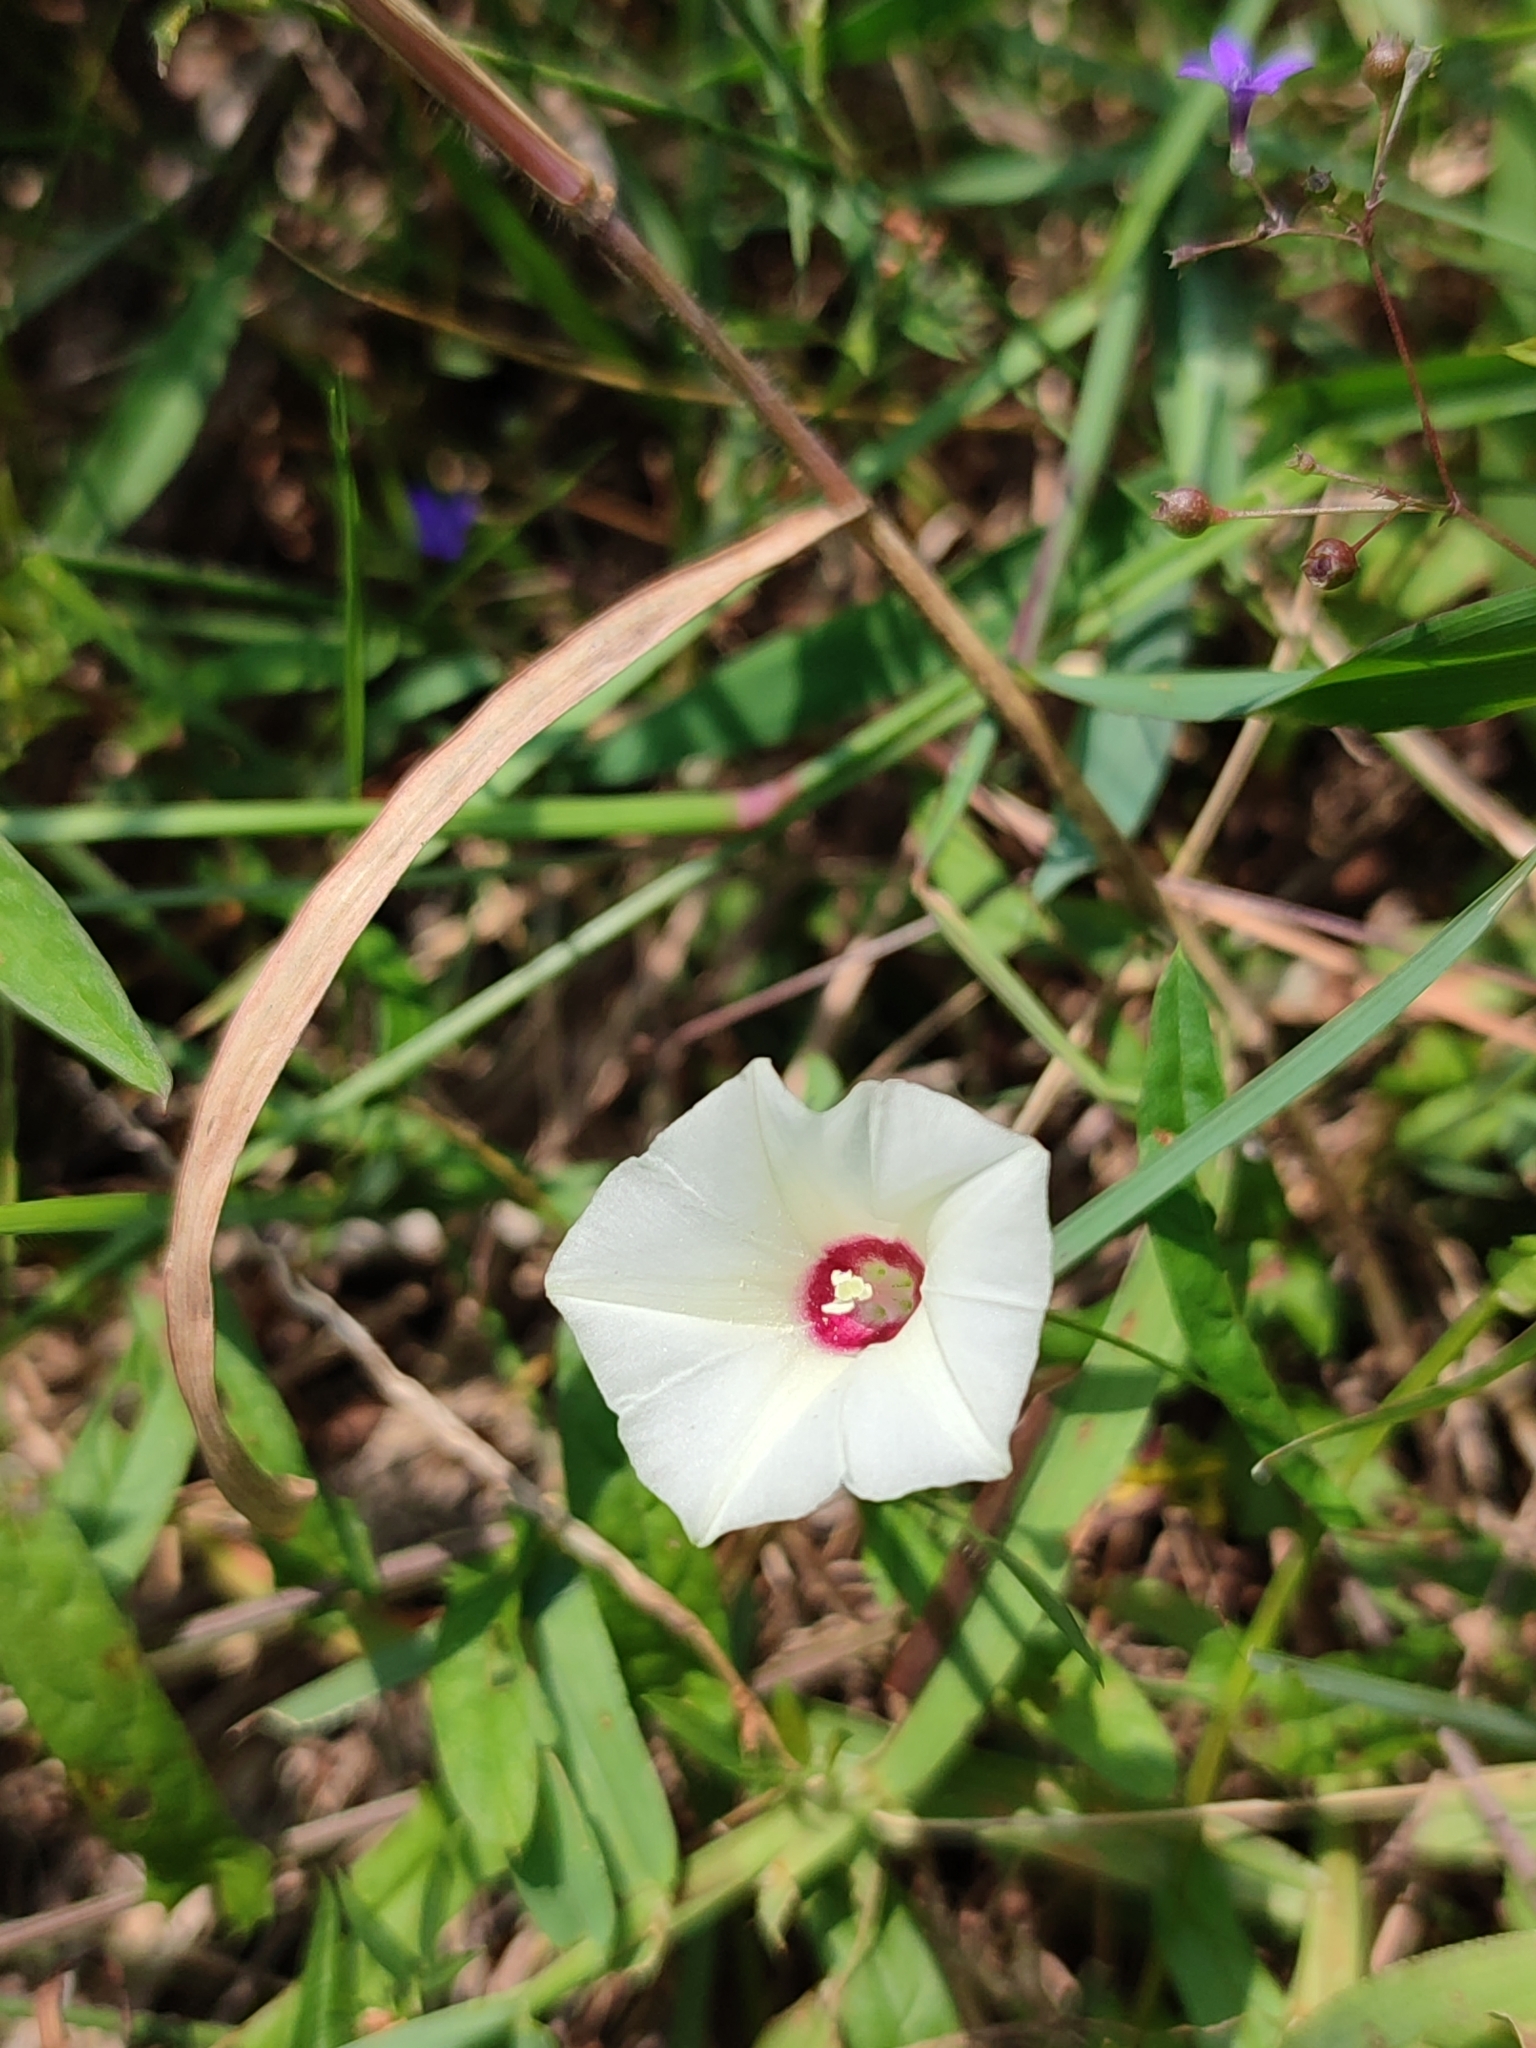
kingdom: Plantae
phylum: Tracheophyta
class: Magnoliopsida
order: Solanales
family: Convolvulaceae
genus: Xenostegia
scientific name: Xenostegia tridentata
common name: African morningvine
